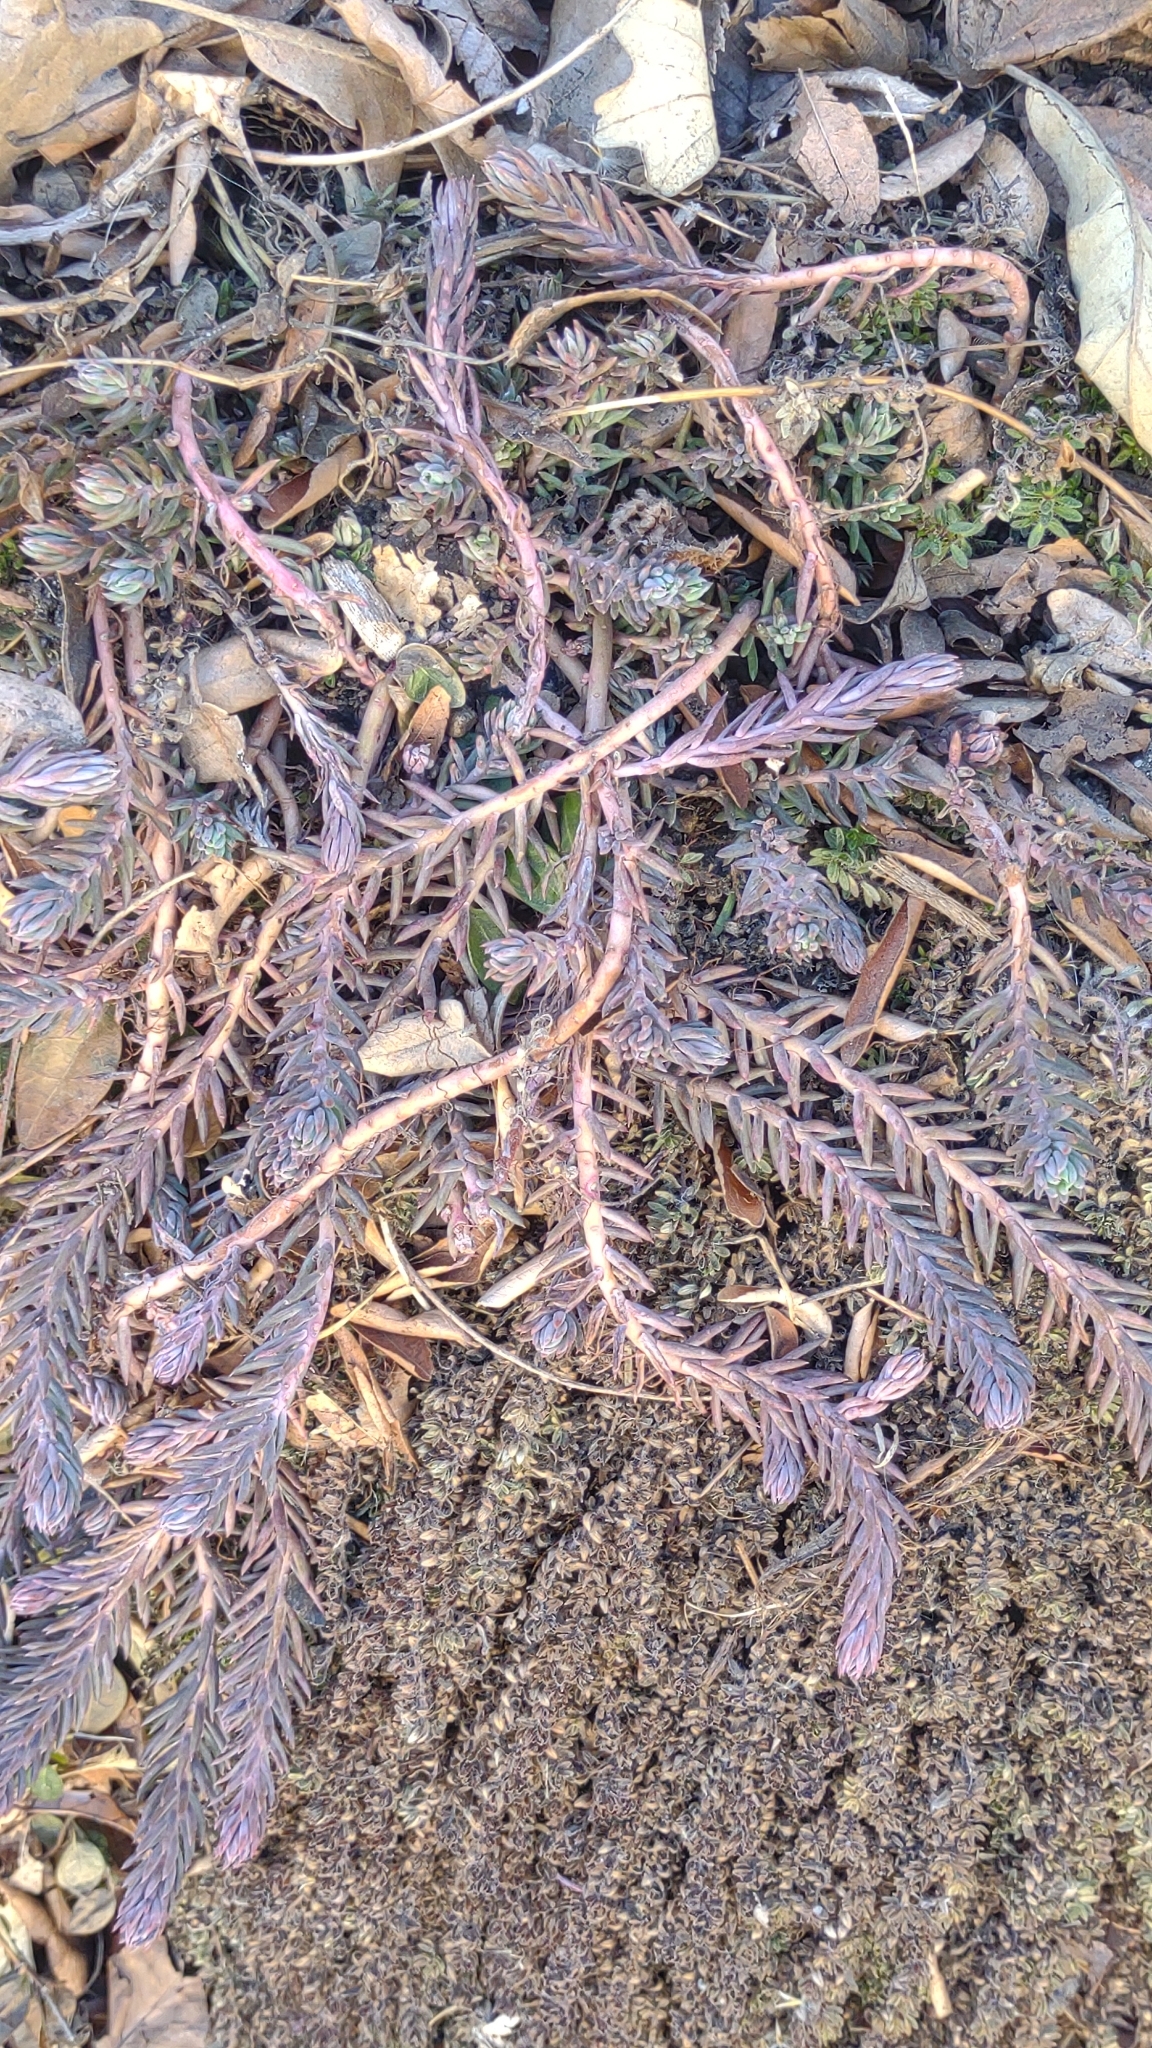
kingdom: Plantae
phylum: Tracheophyta
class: Magnoliopsida
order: Saxifragales
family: Crassulaceae
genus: Petrosedum
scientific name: Petrosedum rupestre
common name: Jenny's stonecrop
